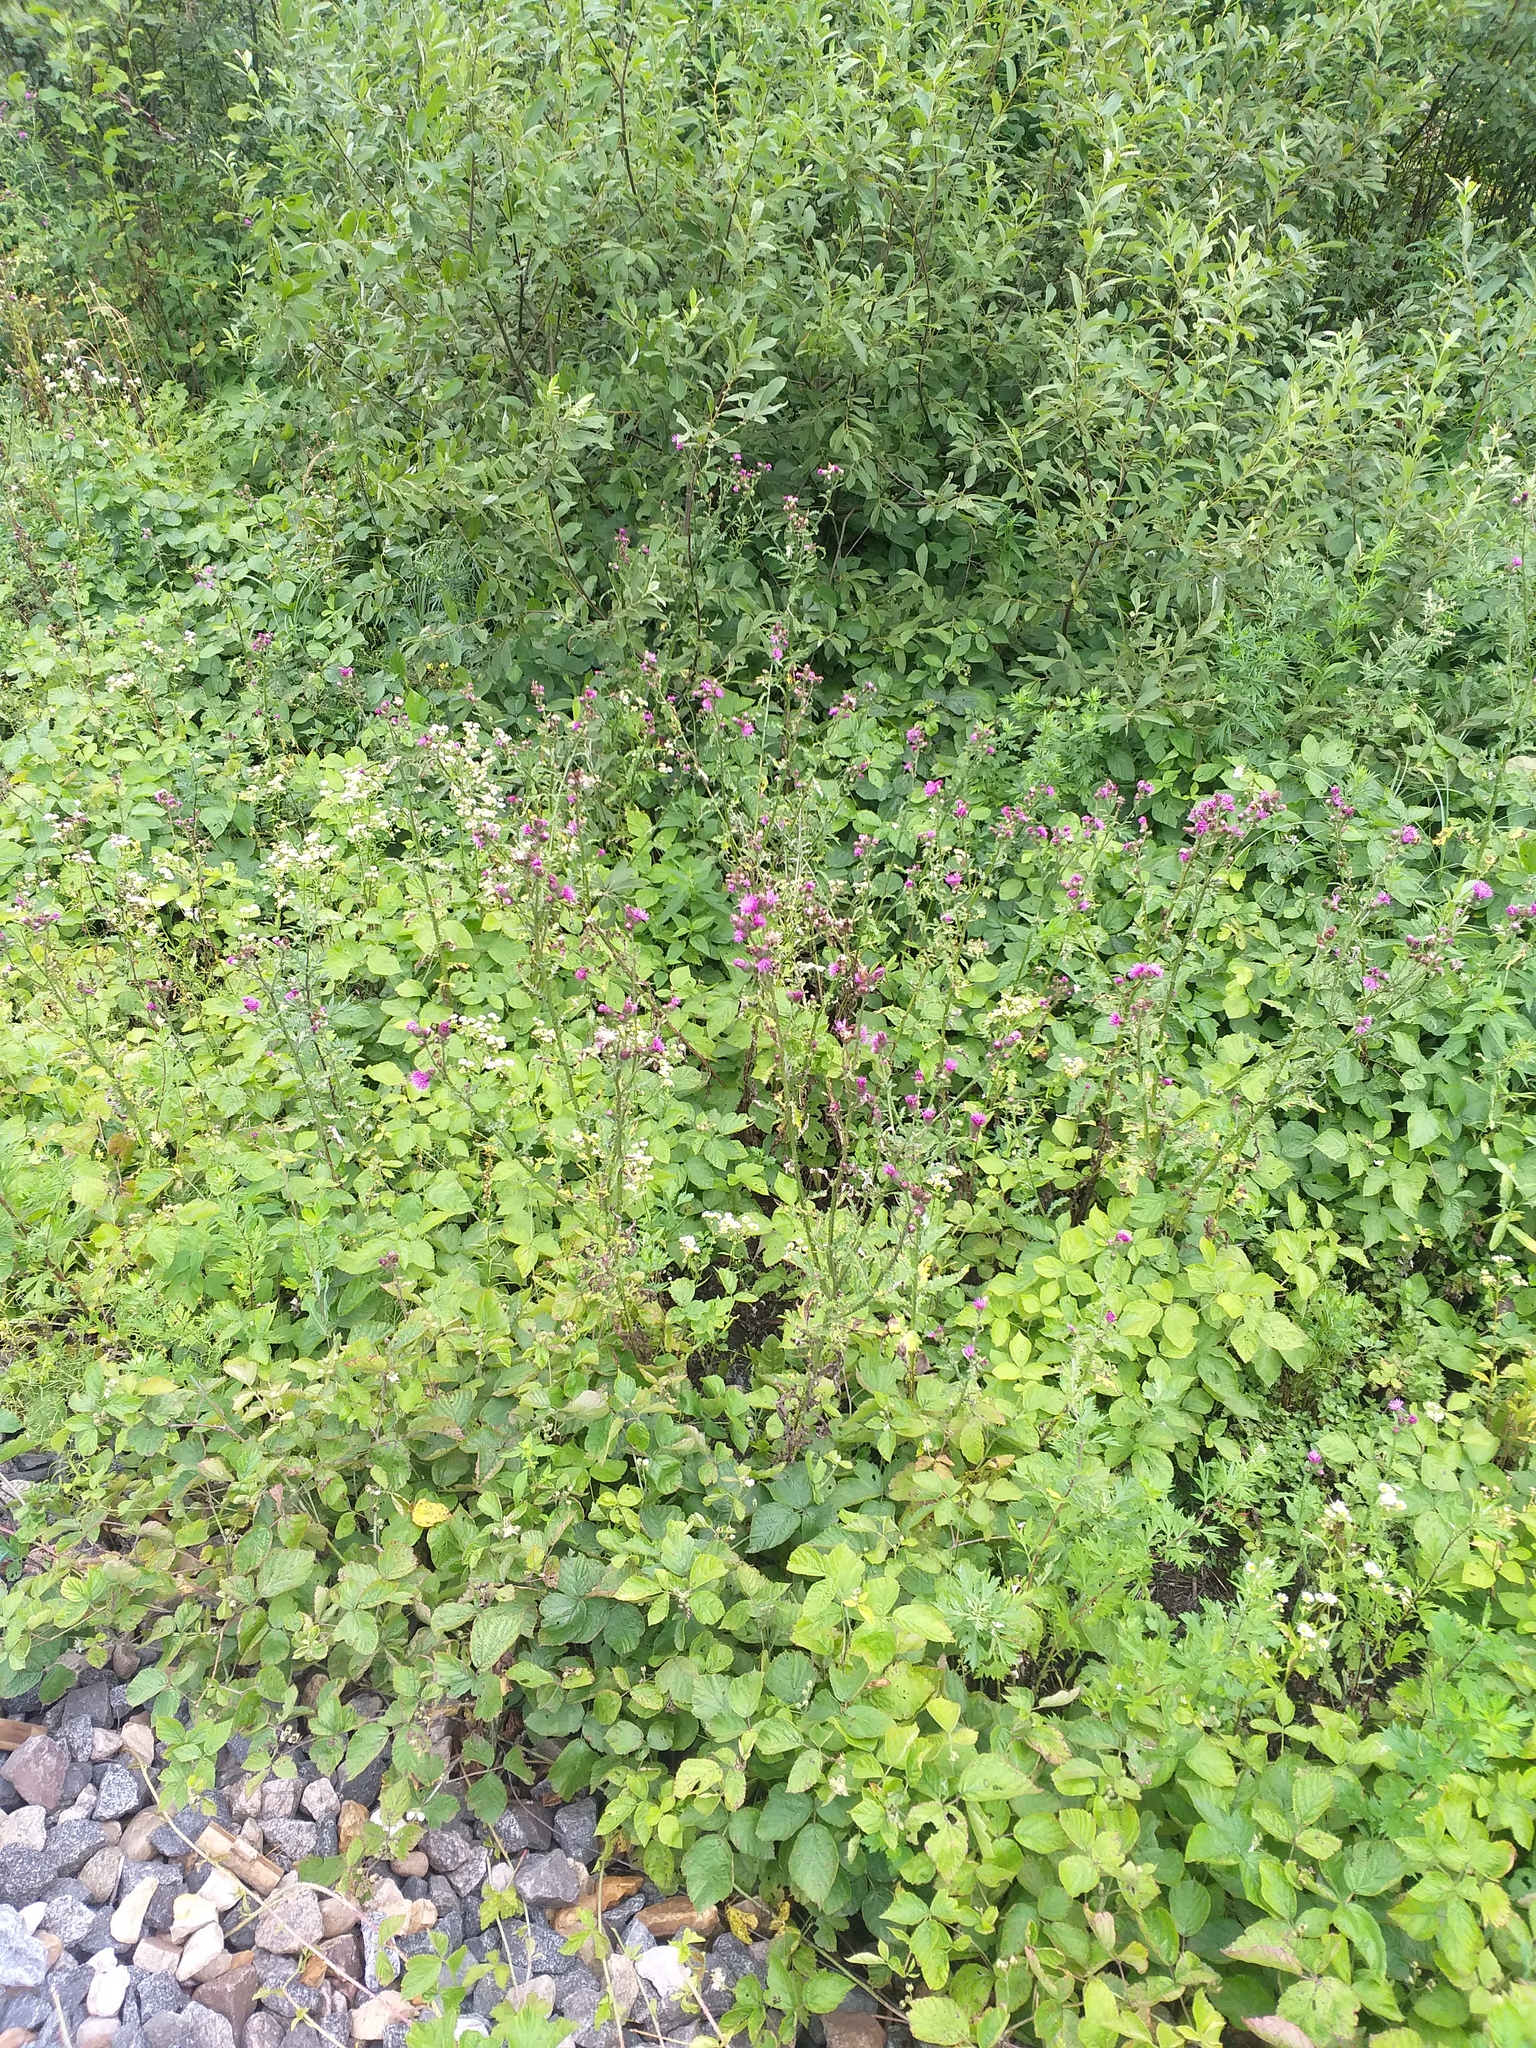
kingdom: Plantae
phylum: Tracheophyta
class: Magnoliopsida
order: Asterales
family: Asteraceae
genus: Carduus
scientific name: Carduus crispus
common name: Welted thistle
